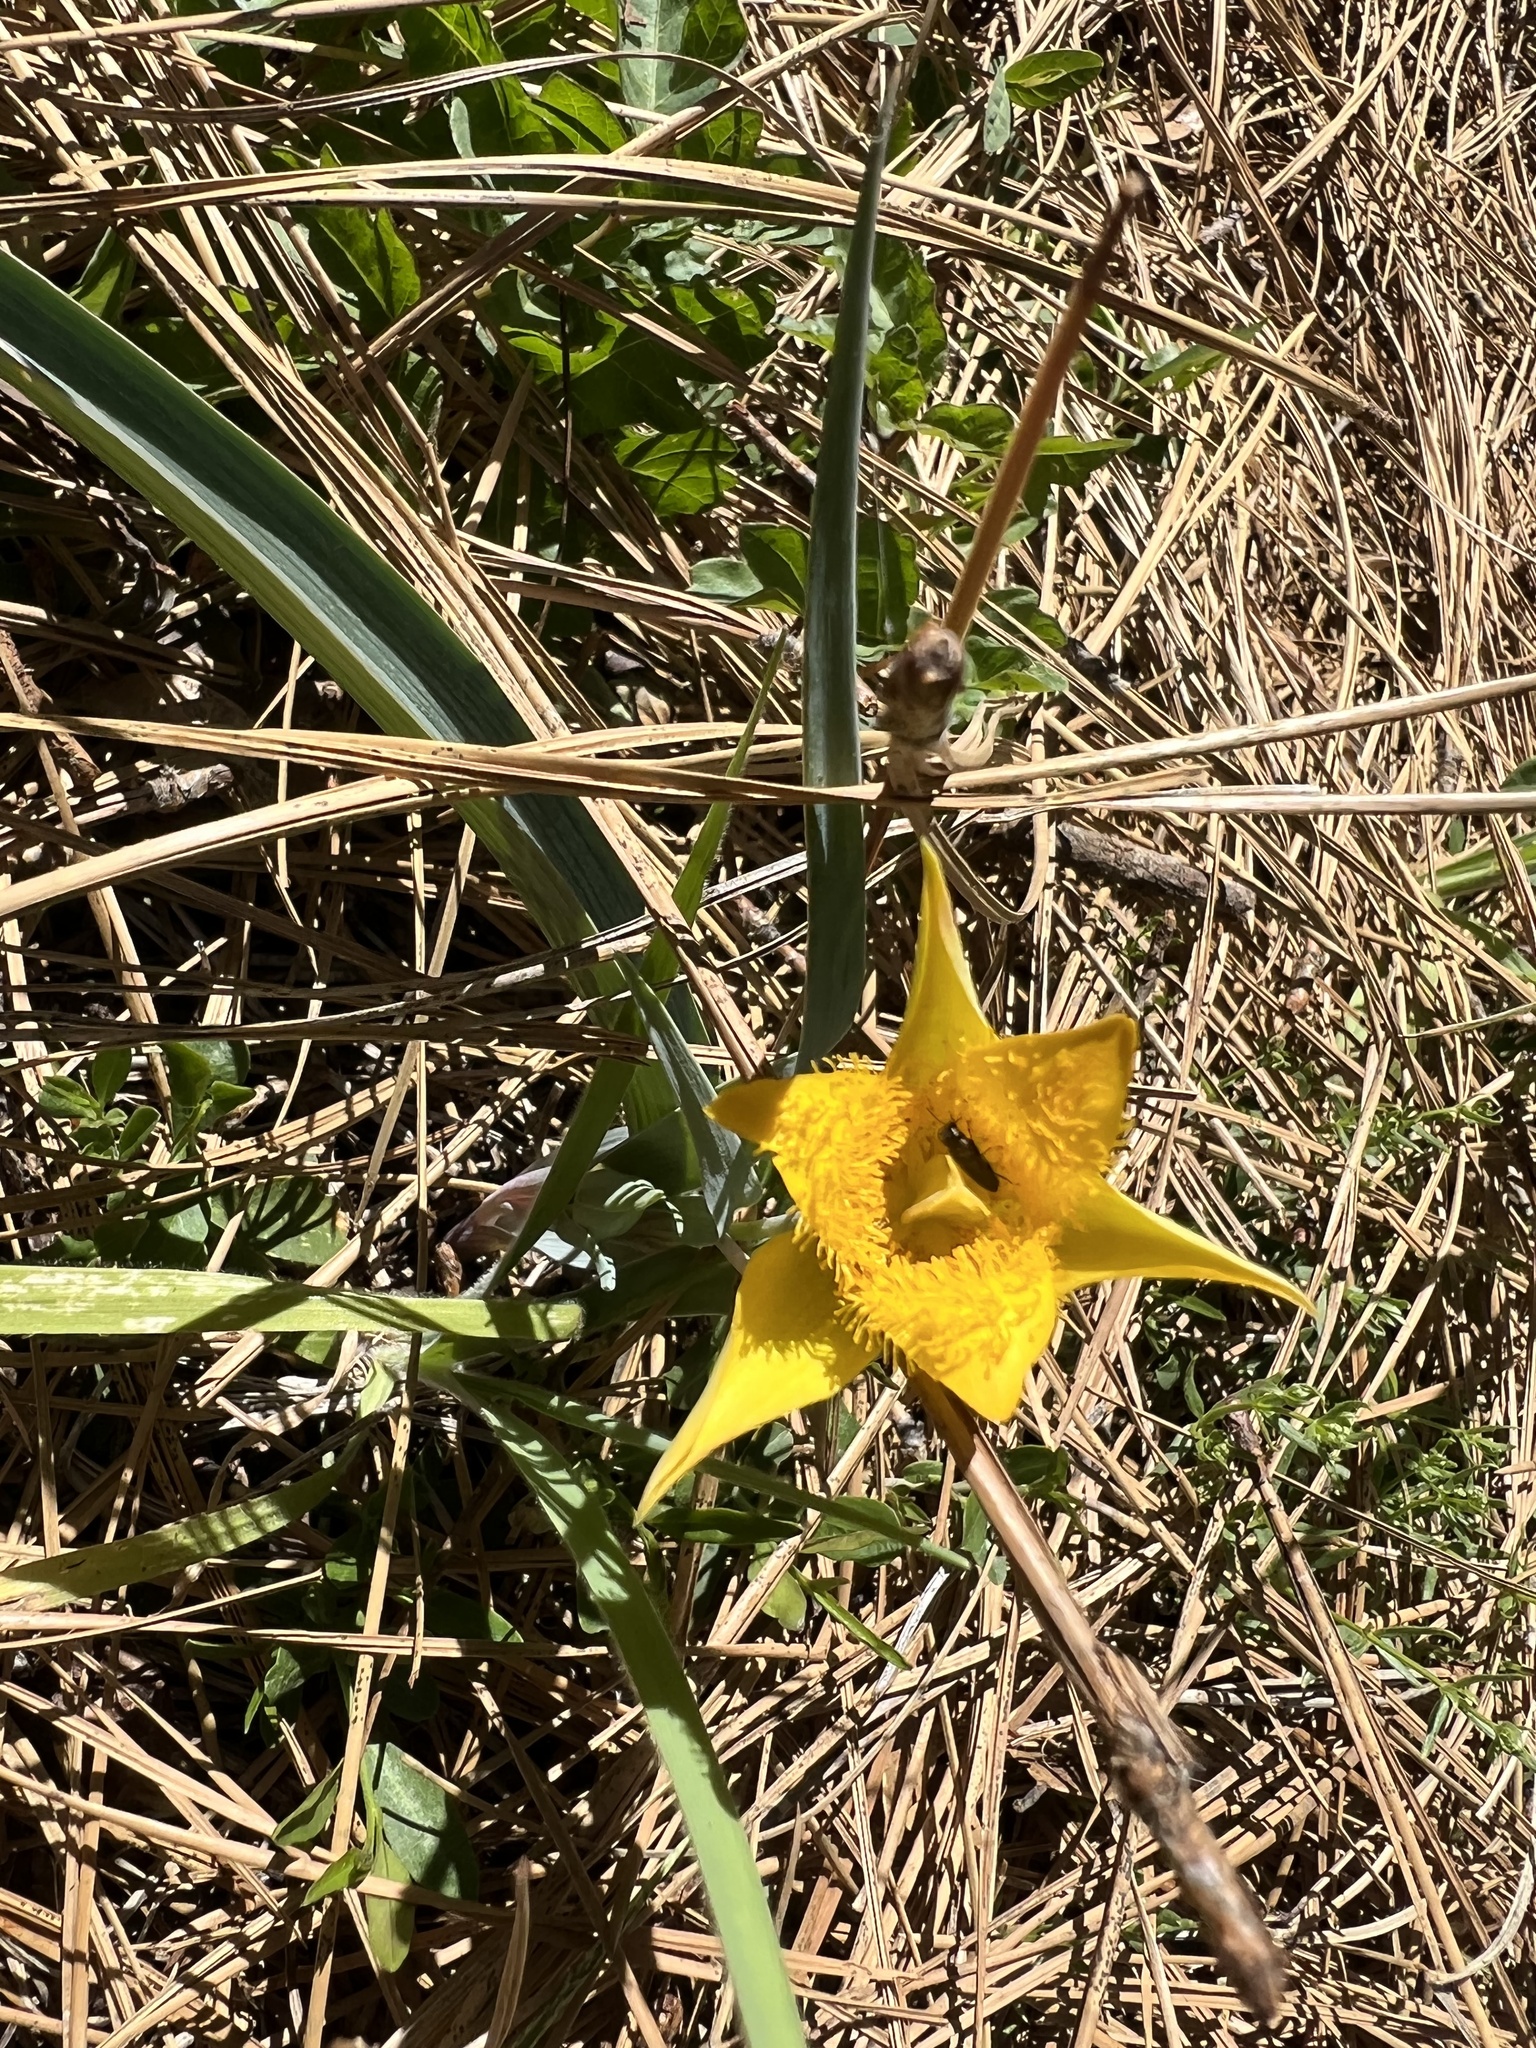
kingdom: Plantae
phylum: Tracheophyta
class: Liliopsida
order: Liliales
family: Liliaceae
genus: Calochortus
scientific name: Calochortus monophyllus
